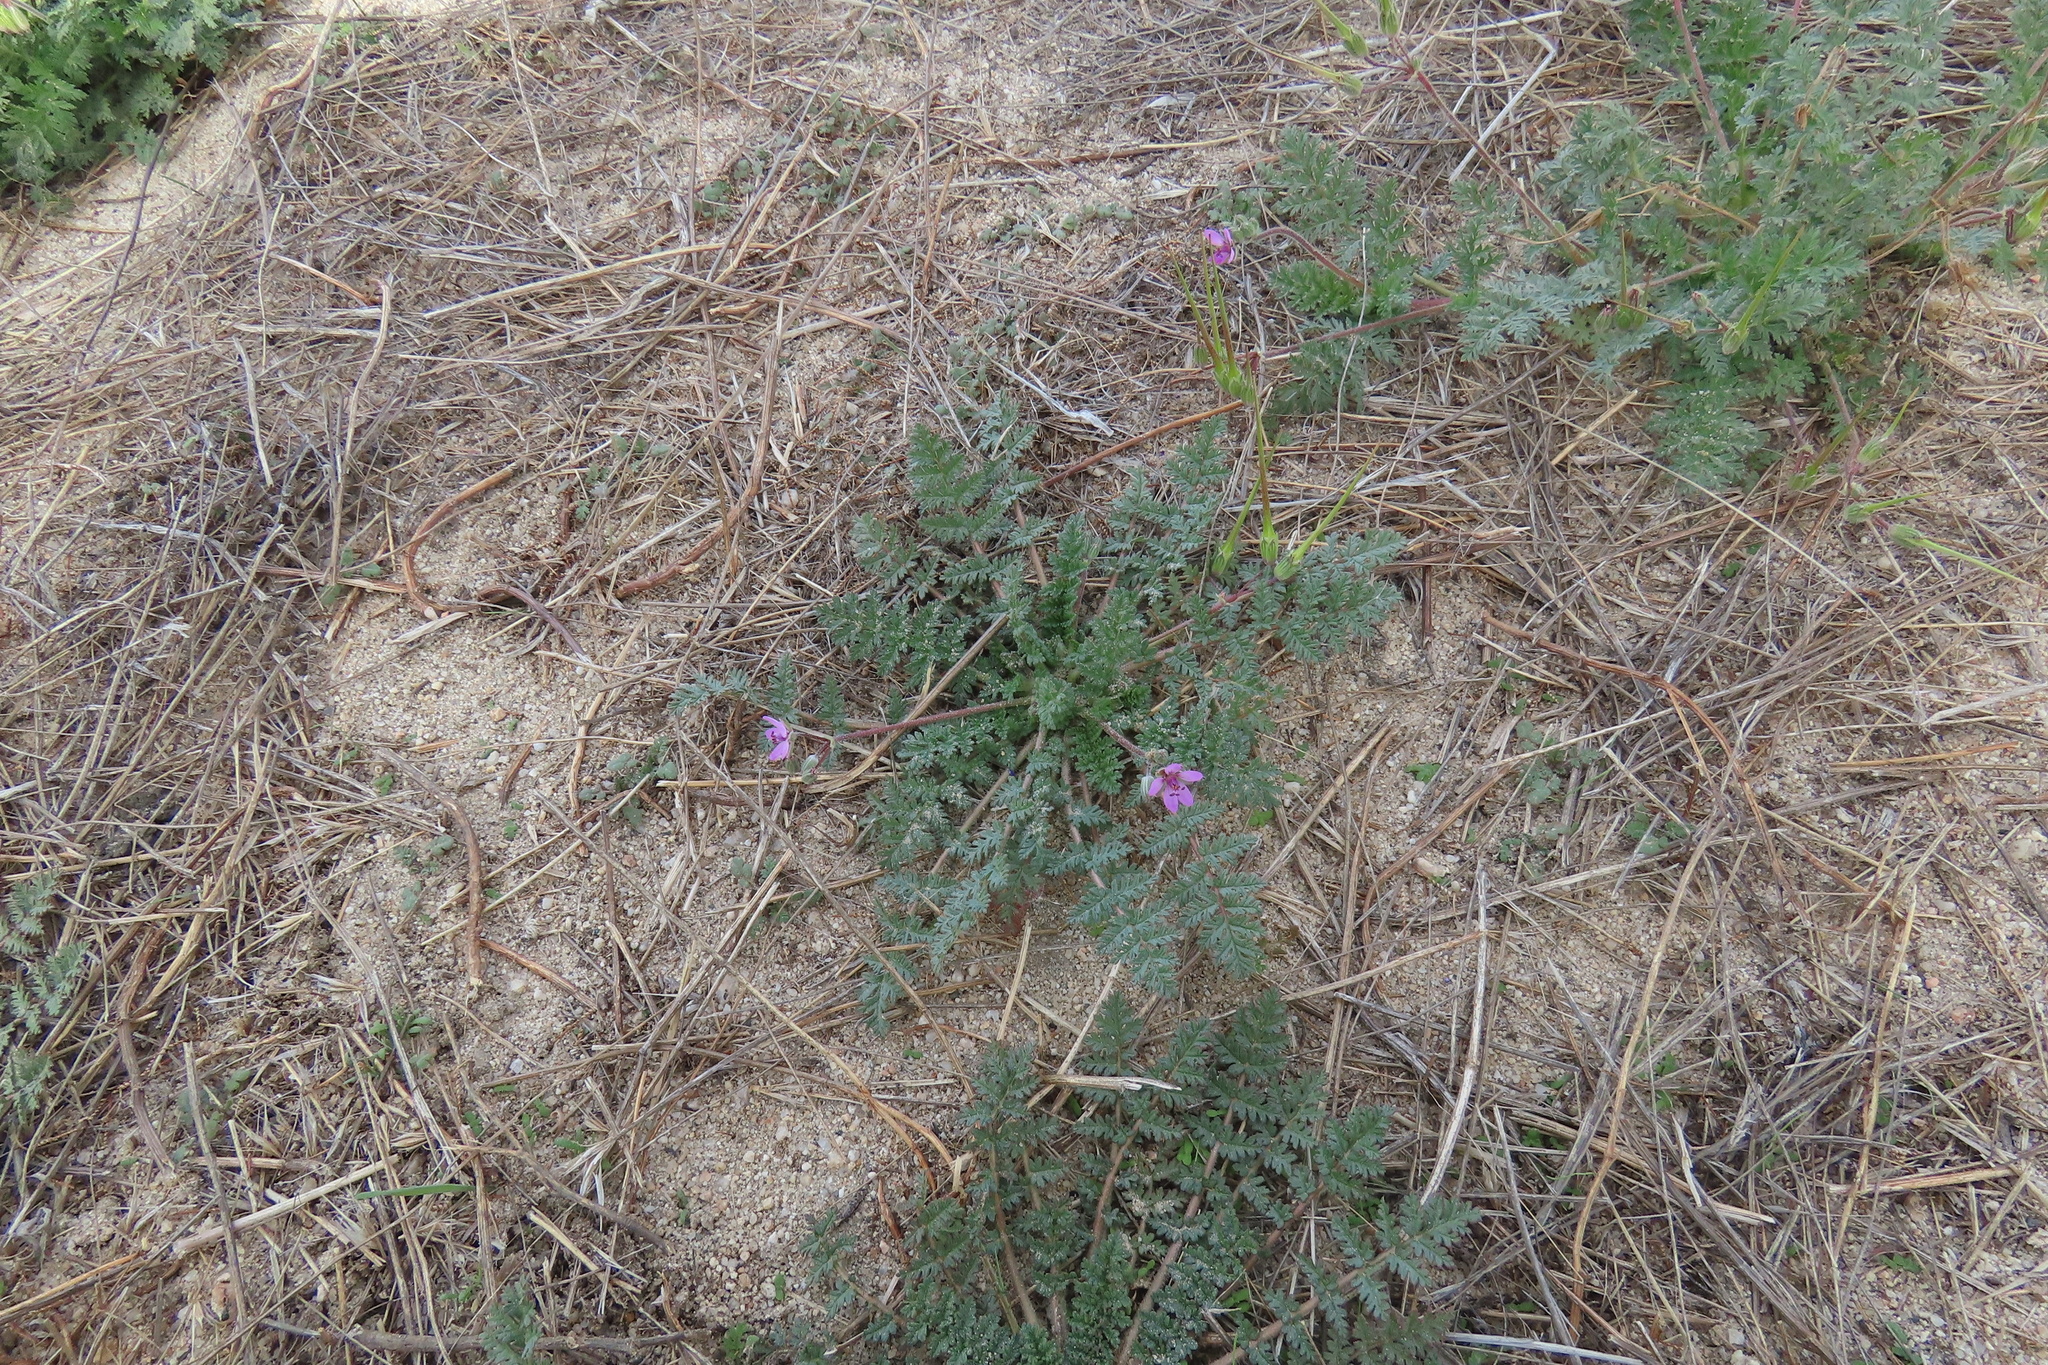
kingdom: Plantae
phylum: Tracheophyta
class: Magnoliopsida
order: Geraniales
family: Geraniaceae
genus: Erodium
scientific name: Erodium cicutarium
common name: Common stork's-bill
